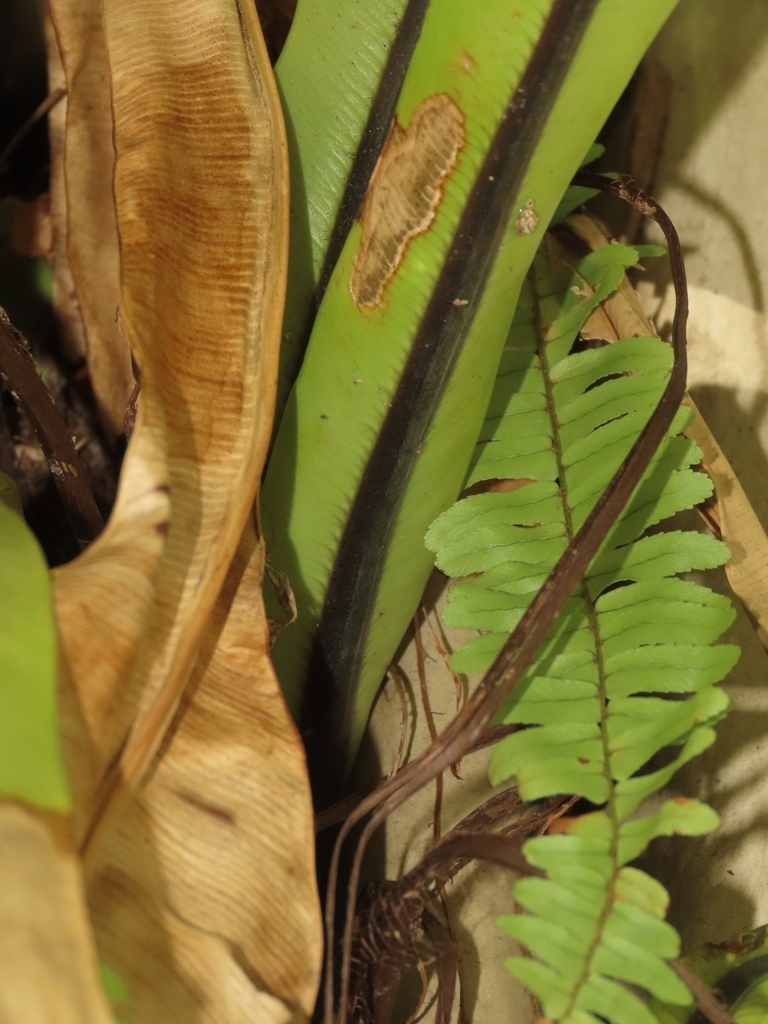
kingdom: Plantae
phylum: Tracheophyta
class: Polypodiopsida
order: Polypodiales
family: Aspleniaceae
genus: Asplenium
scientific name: Asplenium setoi
